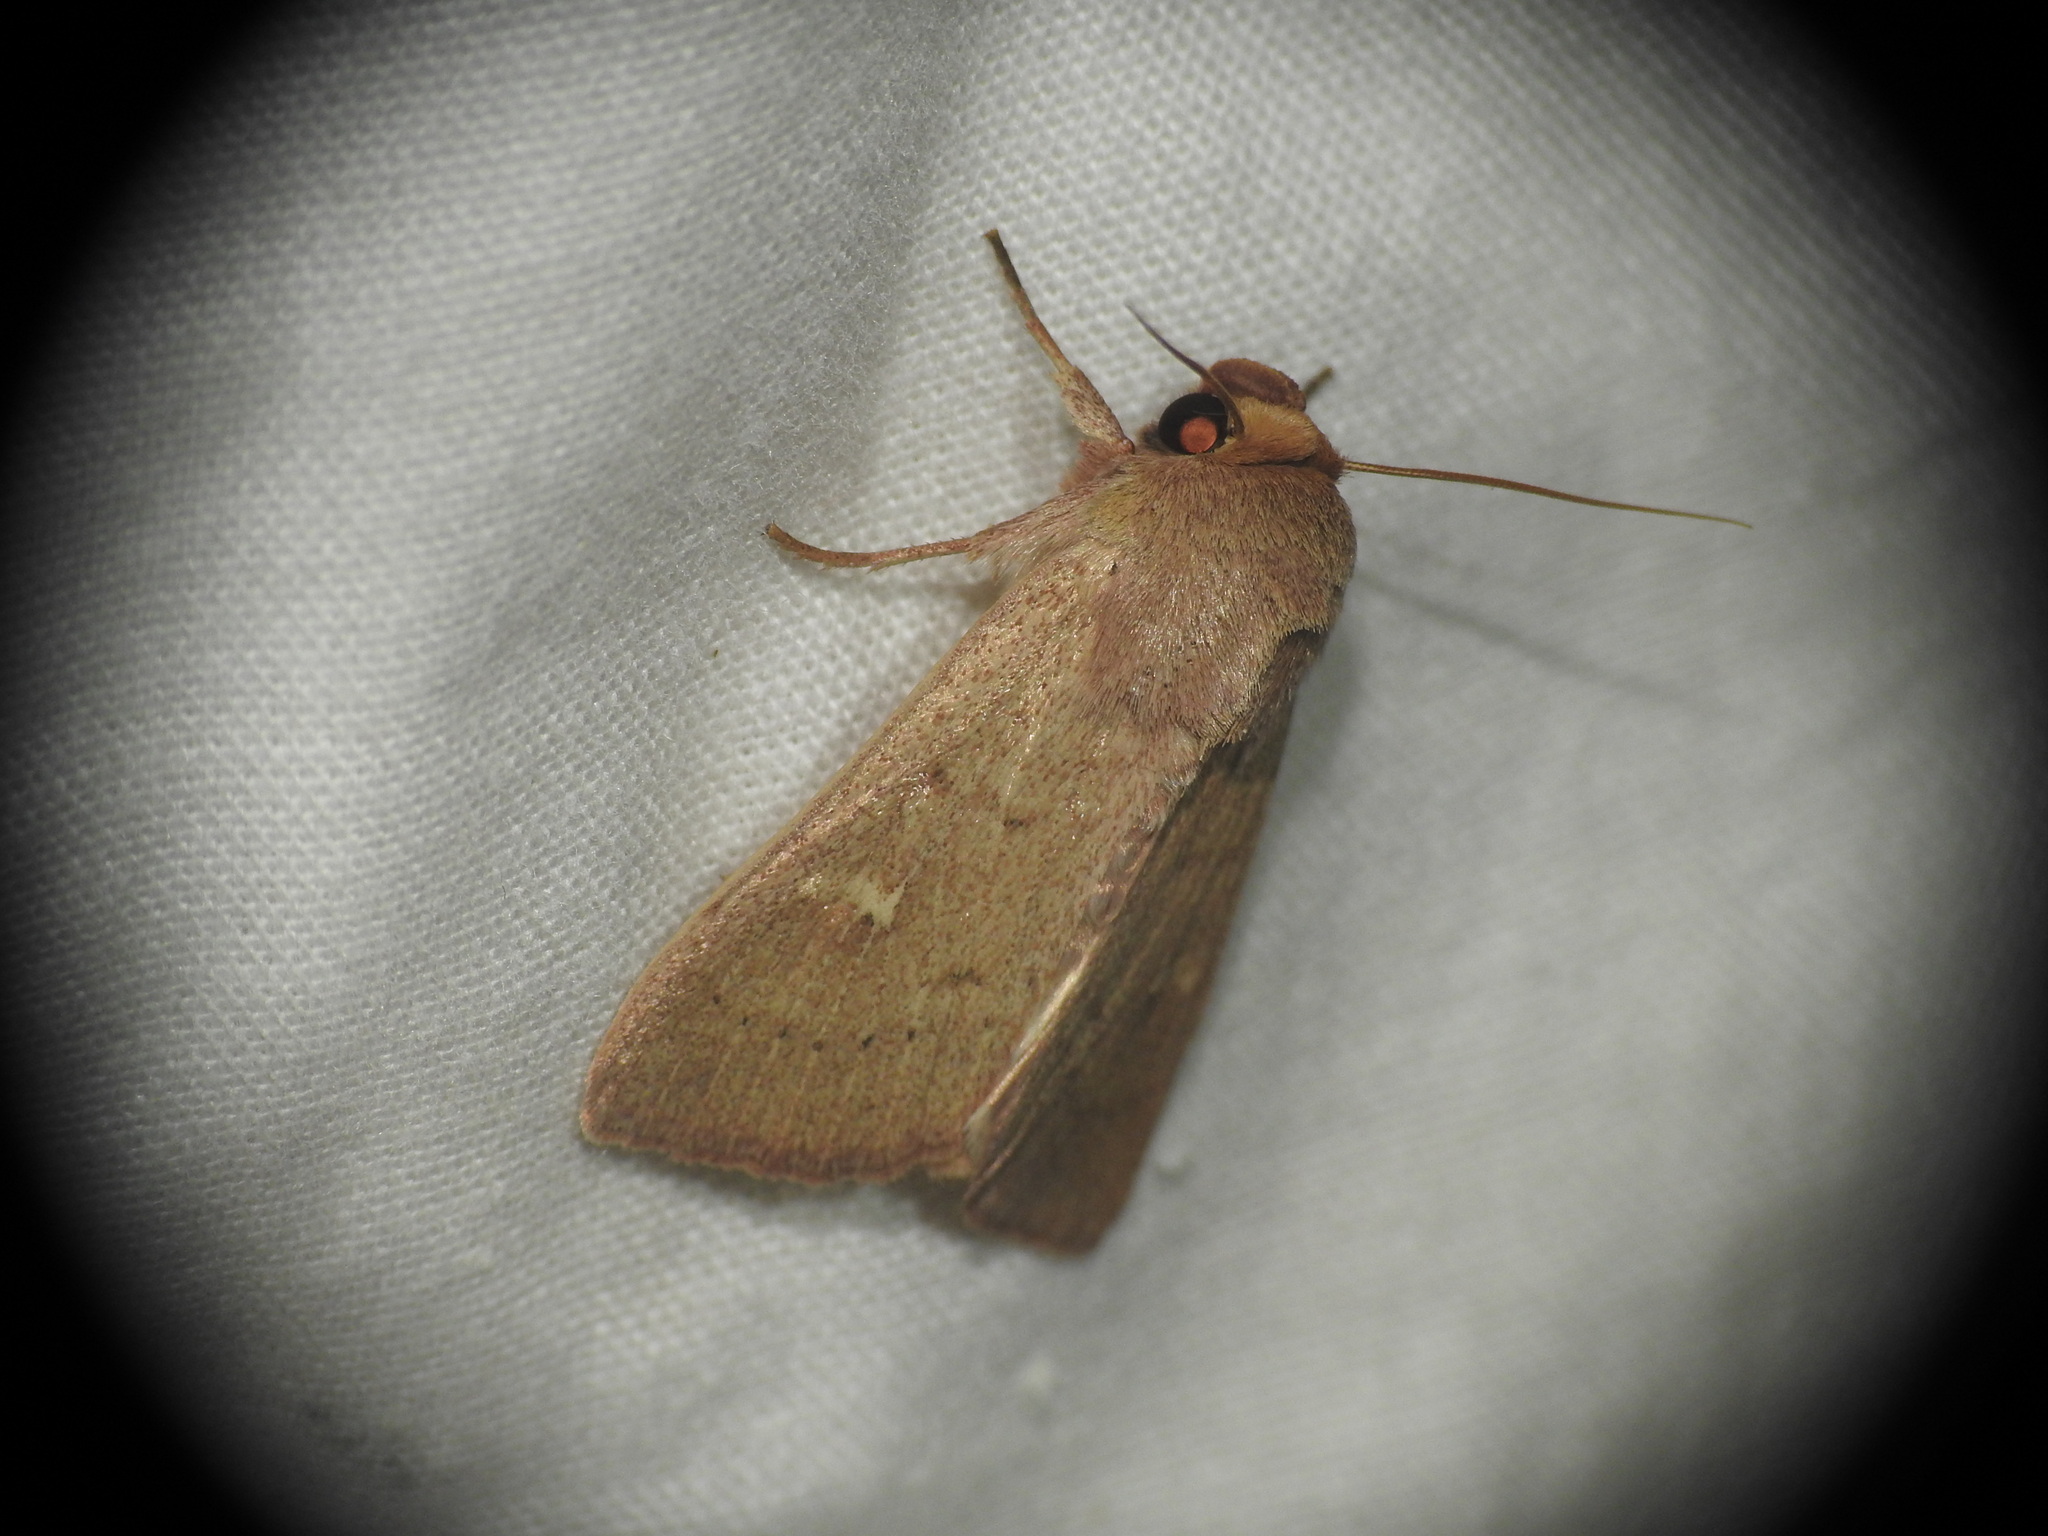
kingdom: Animalia
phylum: Arthropoda
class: Insecta
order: Lepidoptera
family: Noctuidae
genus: Mythimna
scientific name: Mythimna ferrago
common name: Clay
